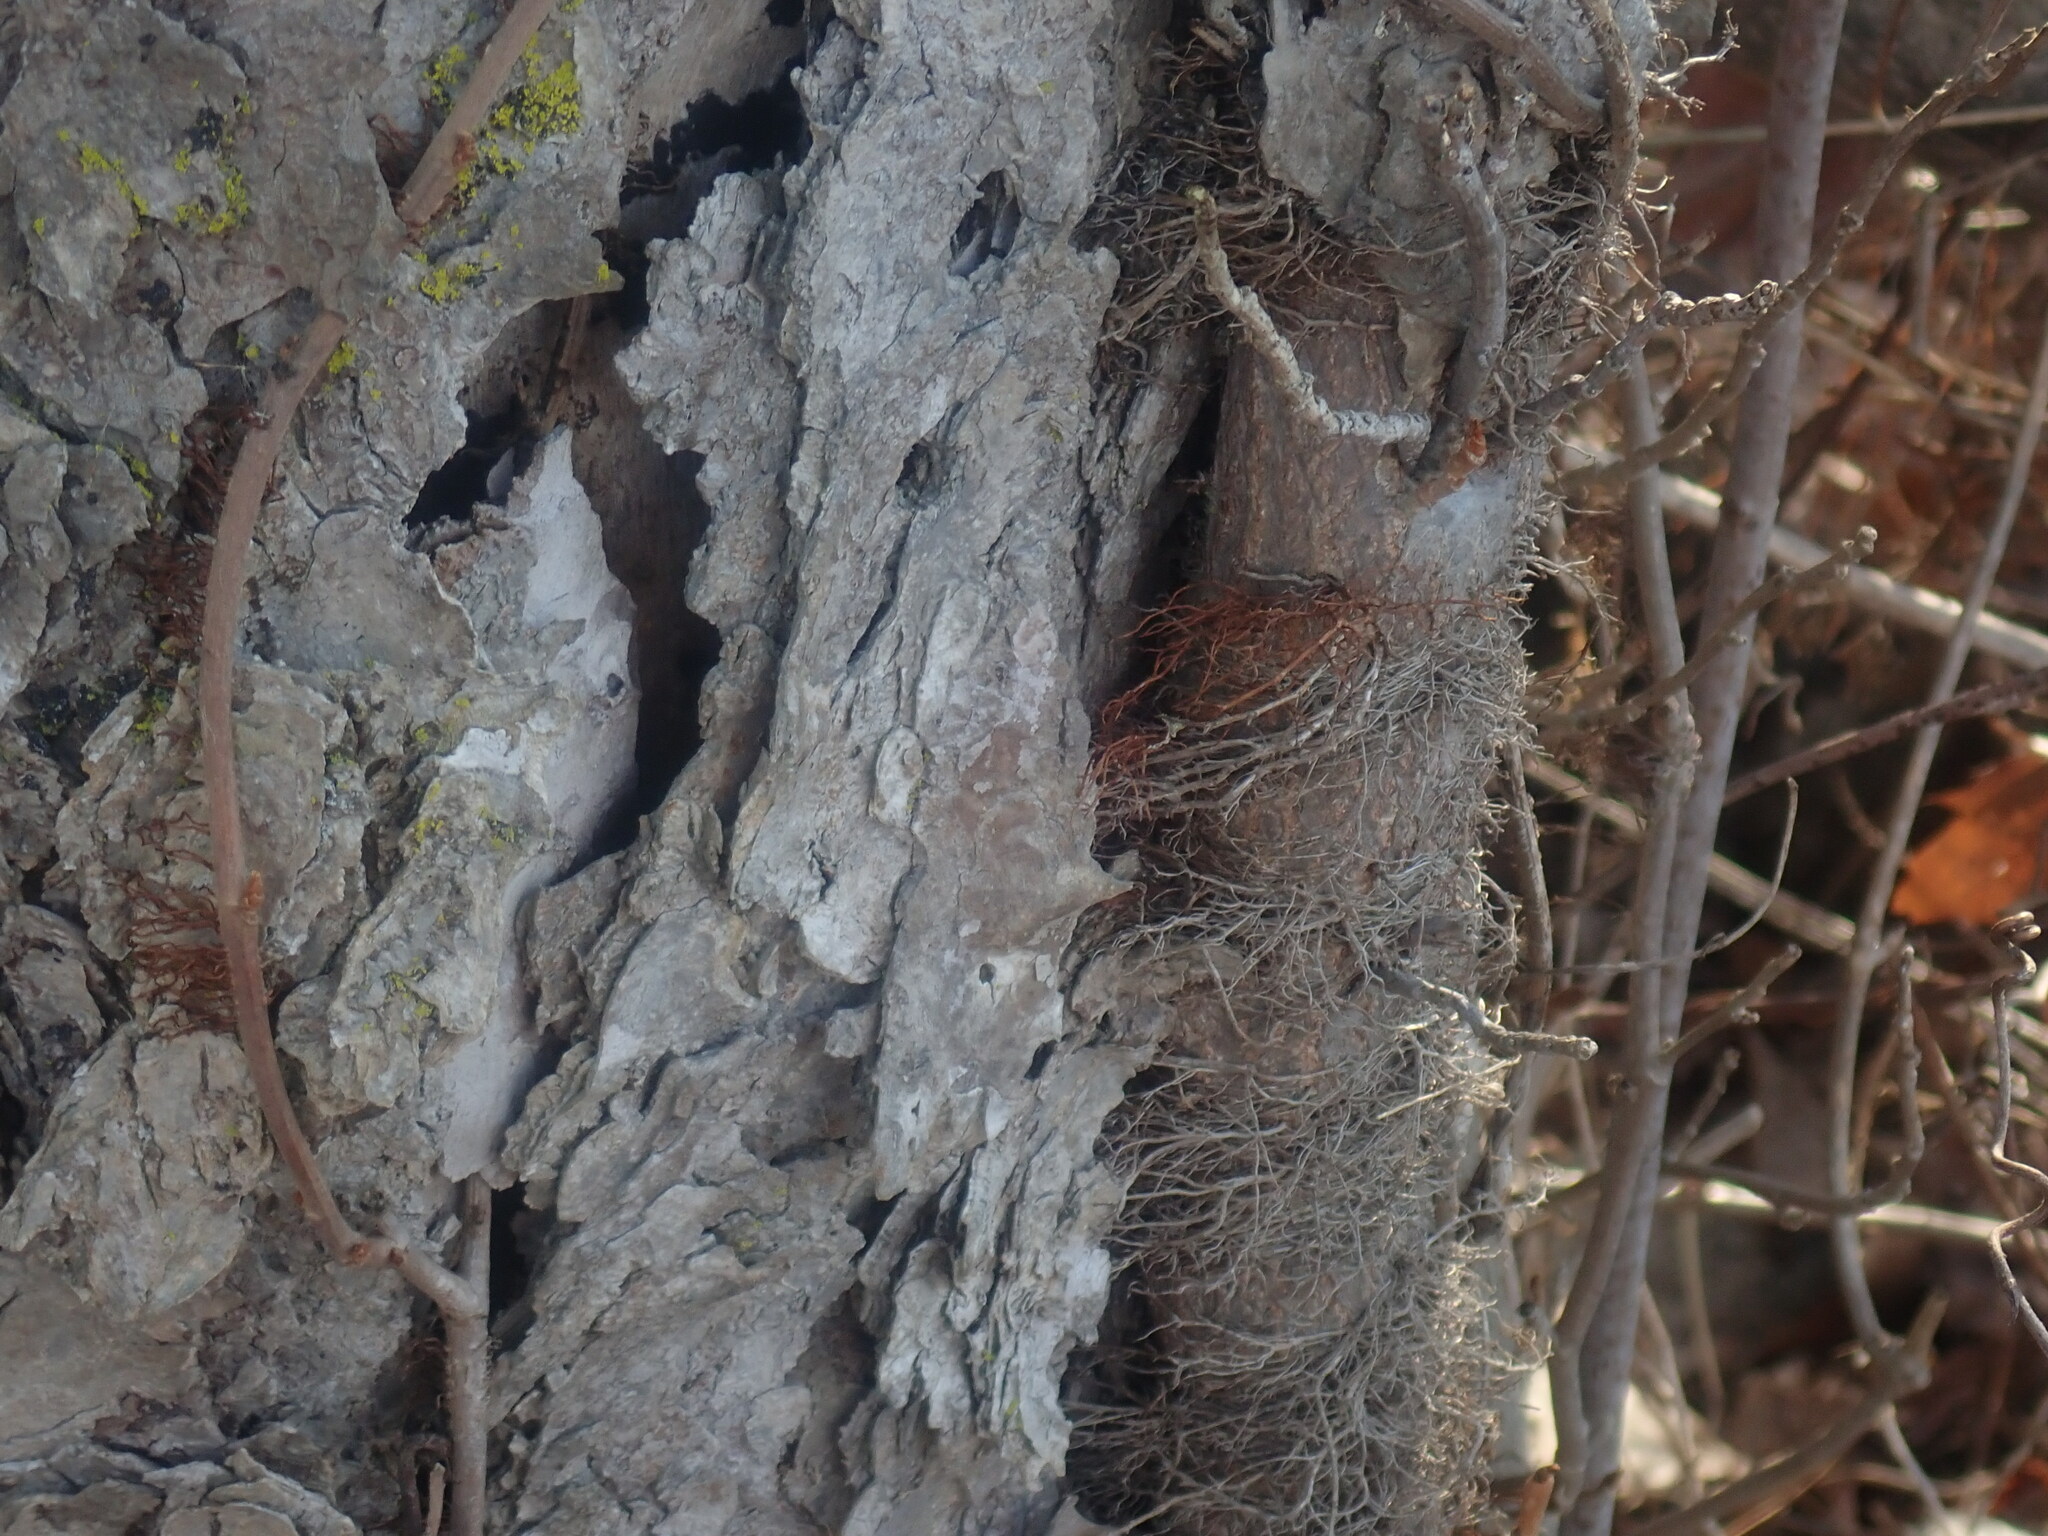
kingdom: Plantae
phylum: Tracheophyta
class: Magnoliopsida
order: Sapindales
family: Anacardiaceae
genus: Toxicodendron
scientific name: Toxicodendron radicans
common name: Poison ivy
